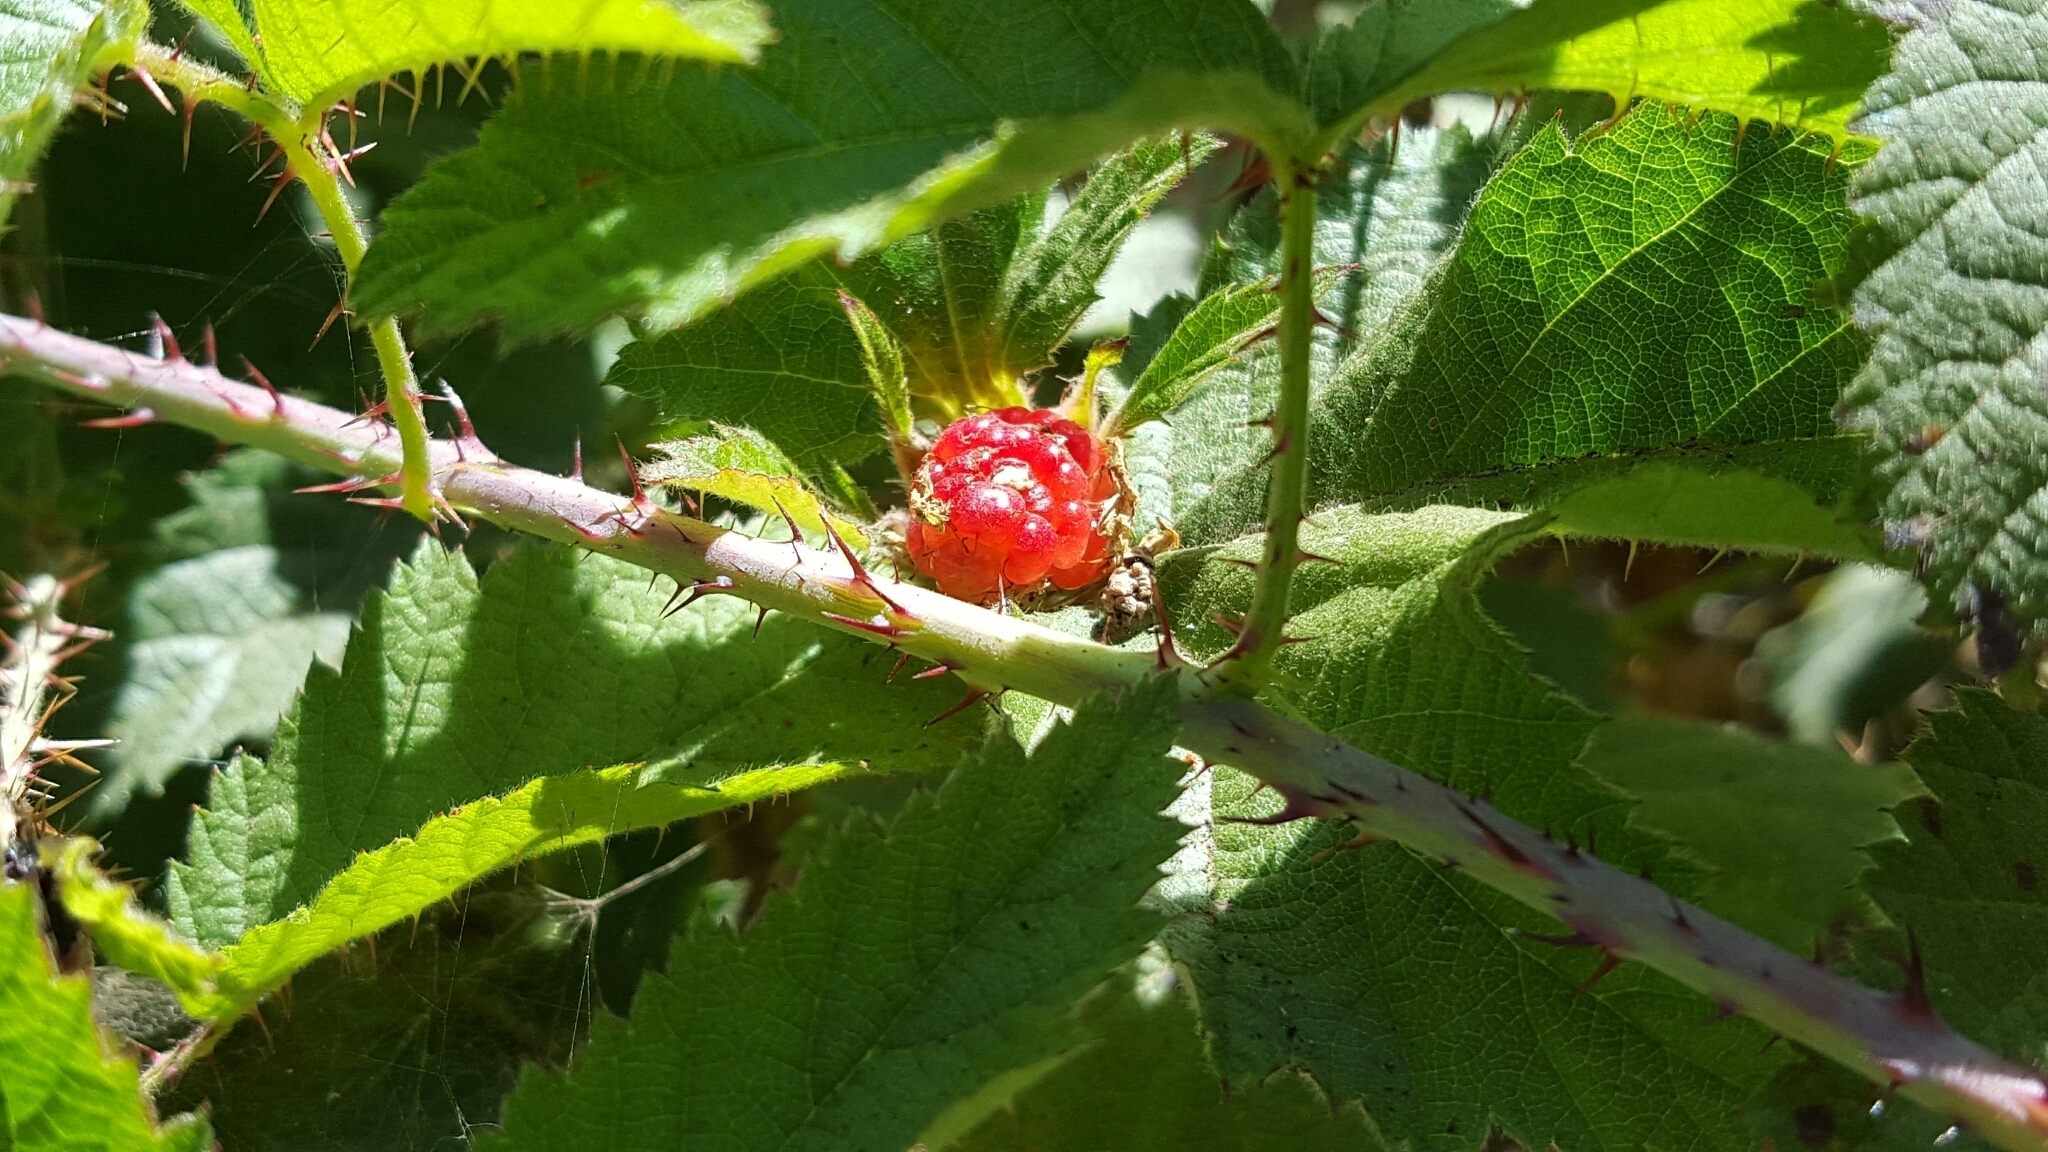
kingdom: Plantae
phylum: Tracheophyta
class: Magnoliopsida
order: Rosales
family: Rosaceae
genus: Rubus
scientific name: Rubus ursinus
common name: Pacific blackberry
